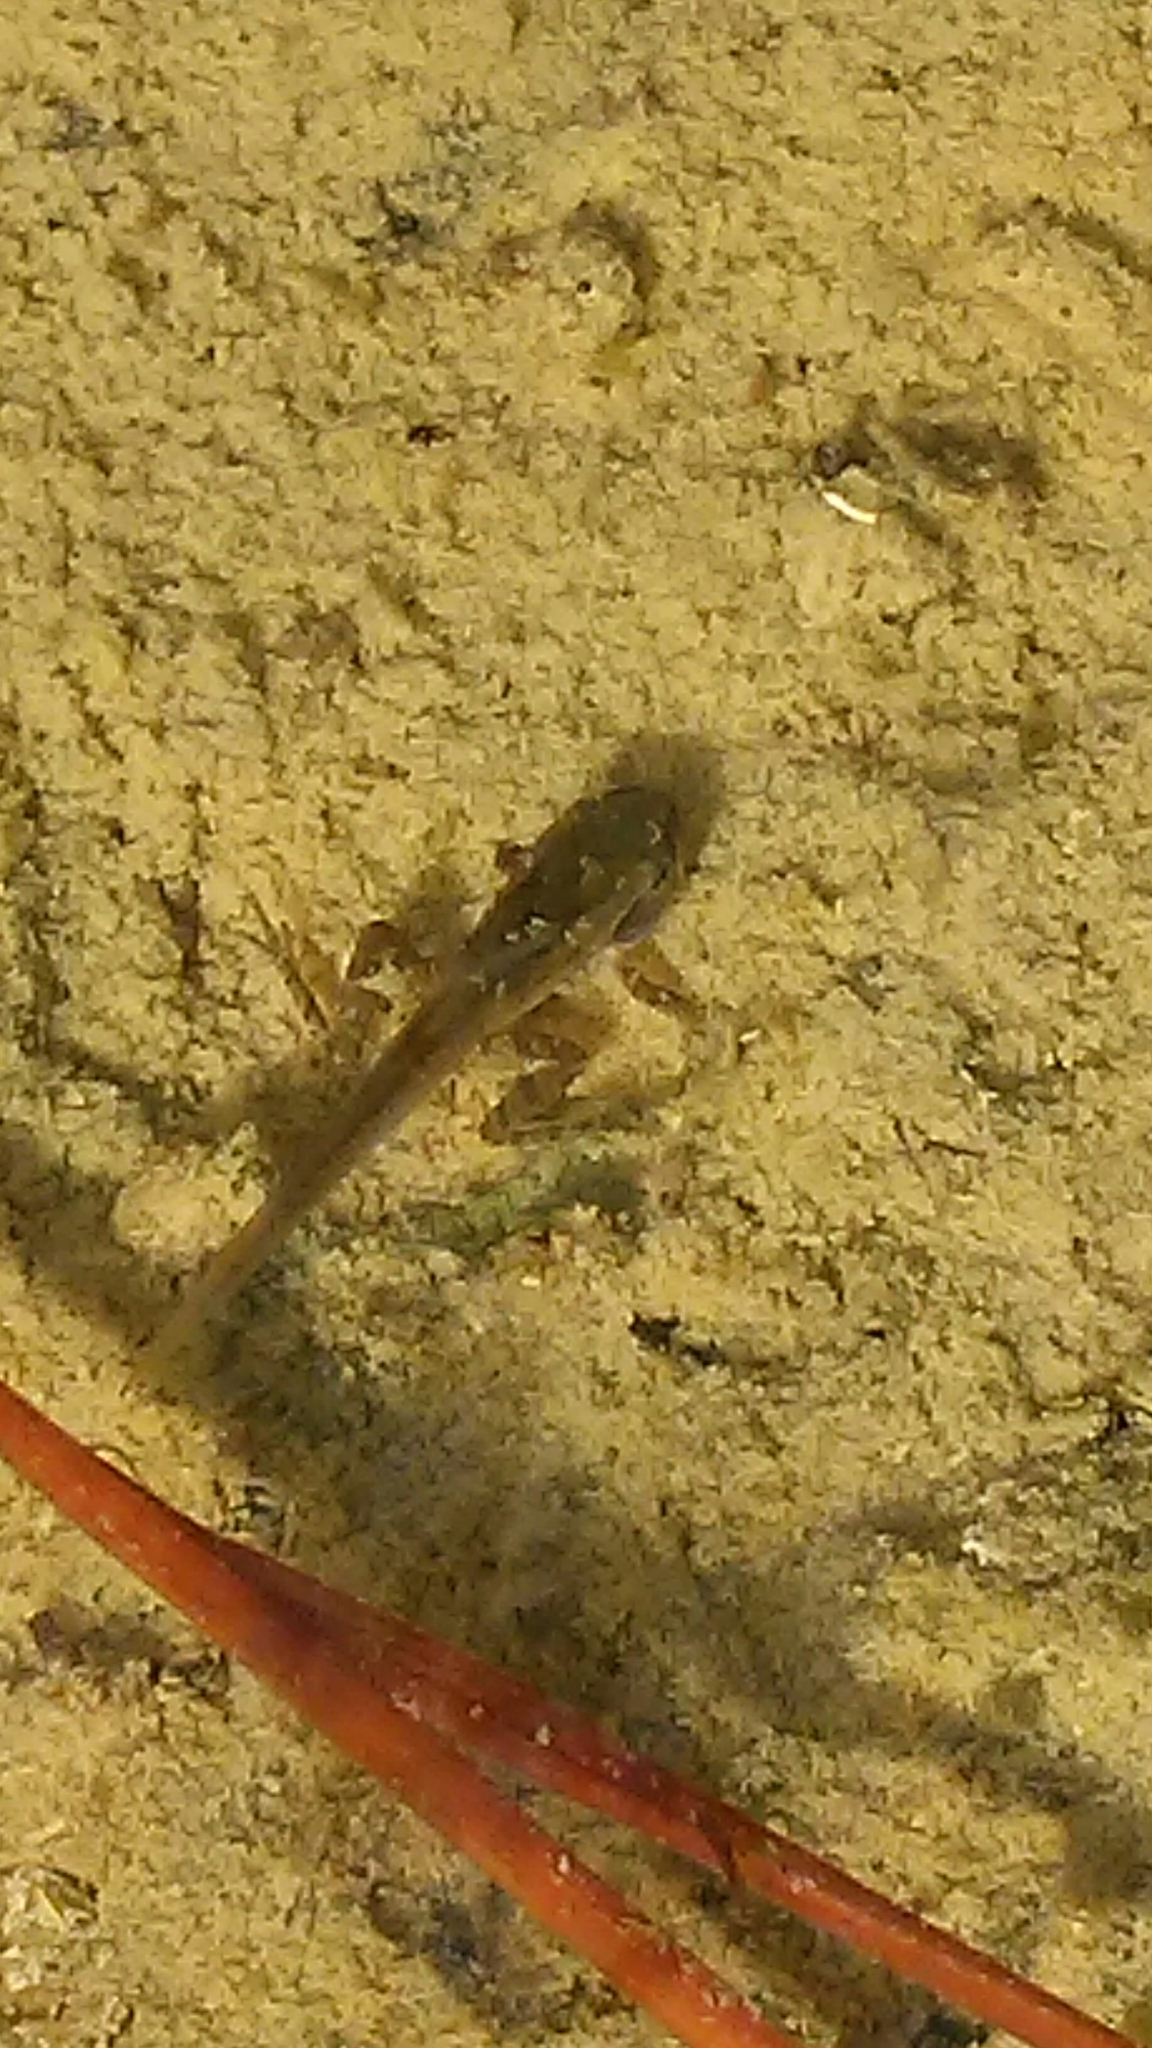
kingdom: Animalia
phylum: Chordata
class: Amphibia
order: Anura
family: Hylidae
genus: Pseudacris
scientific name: Pseudacris regilla
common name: Pacific chorus frog
